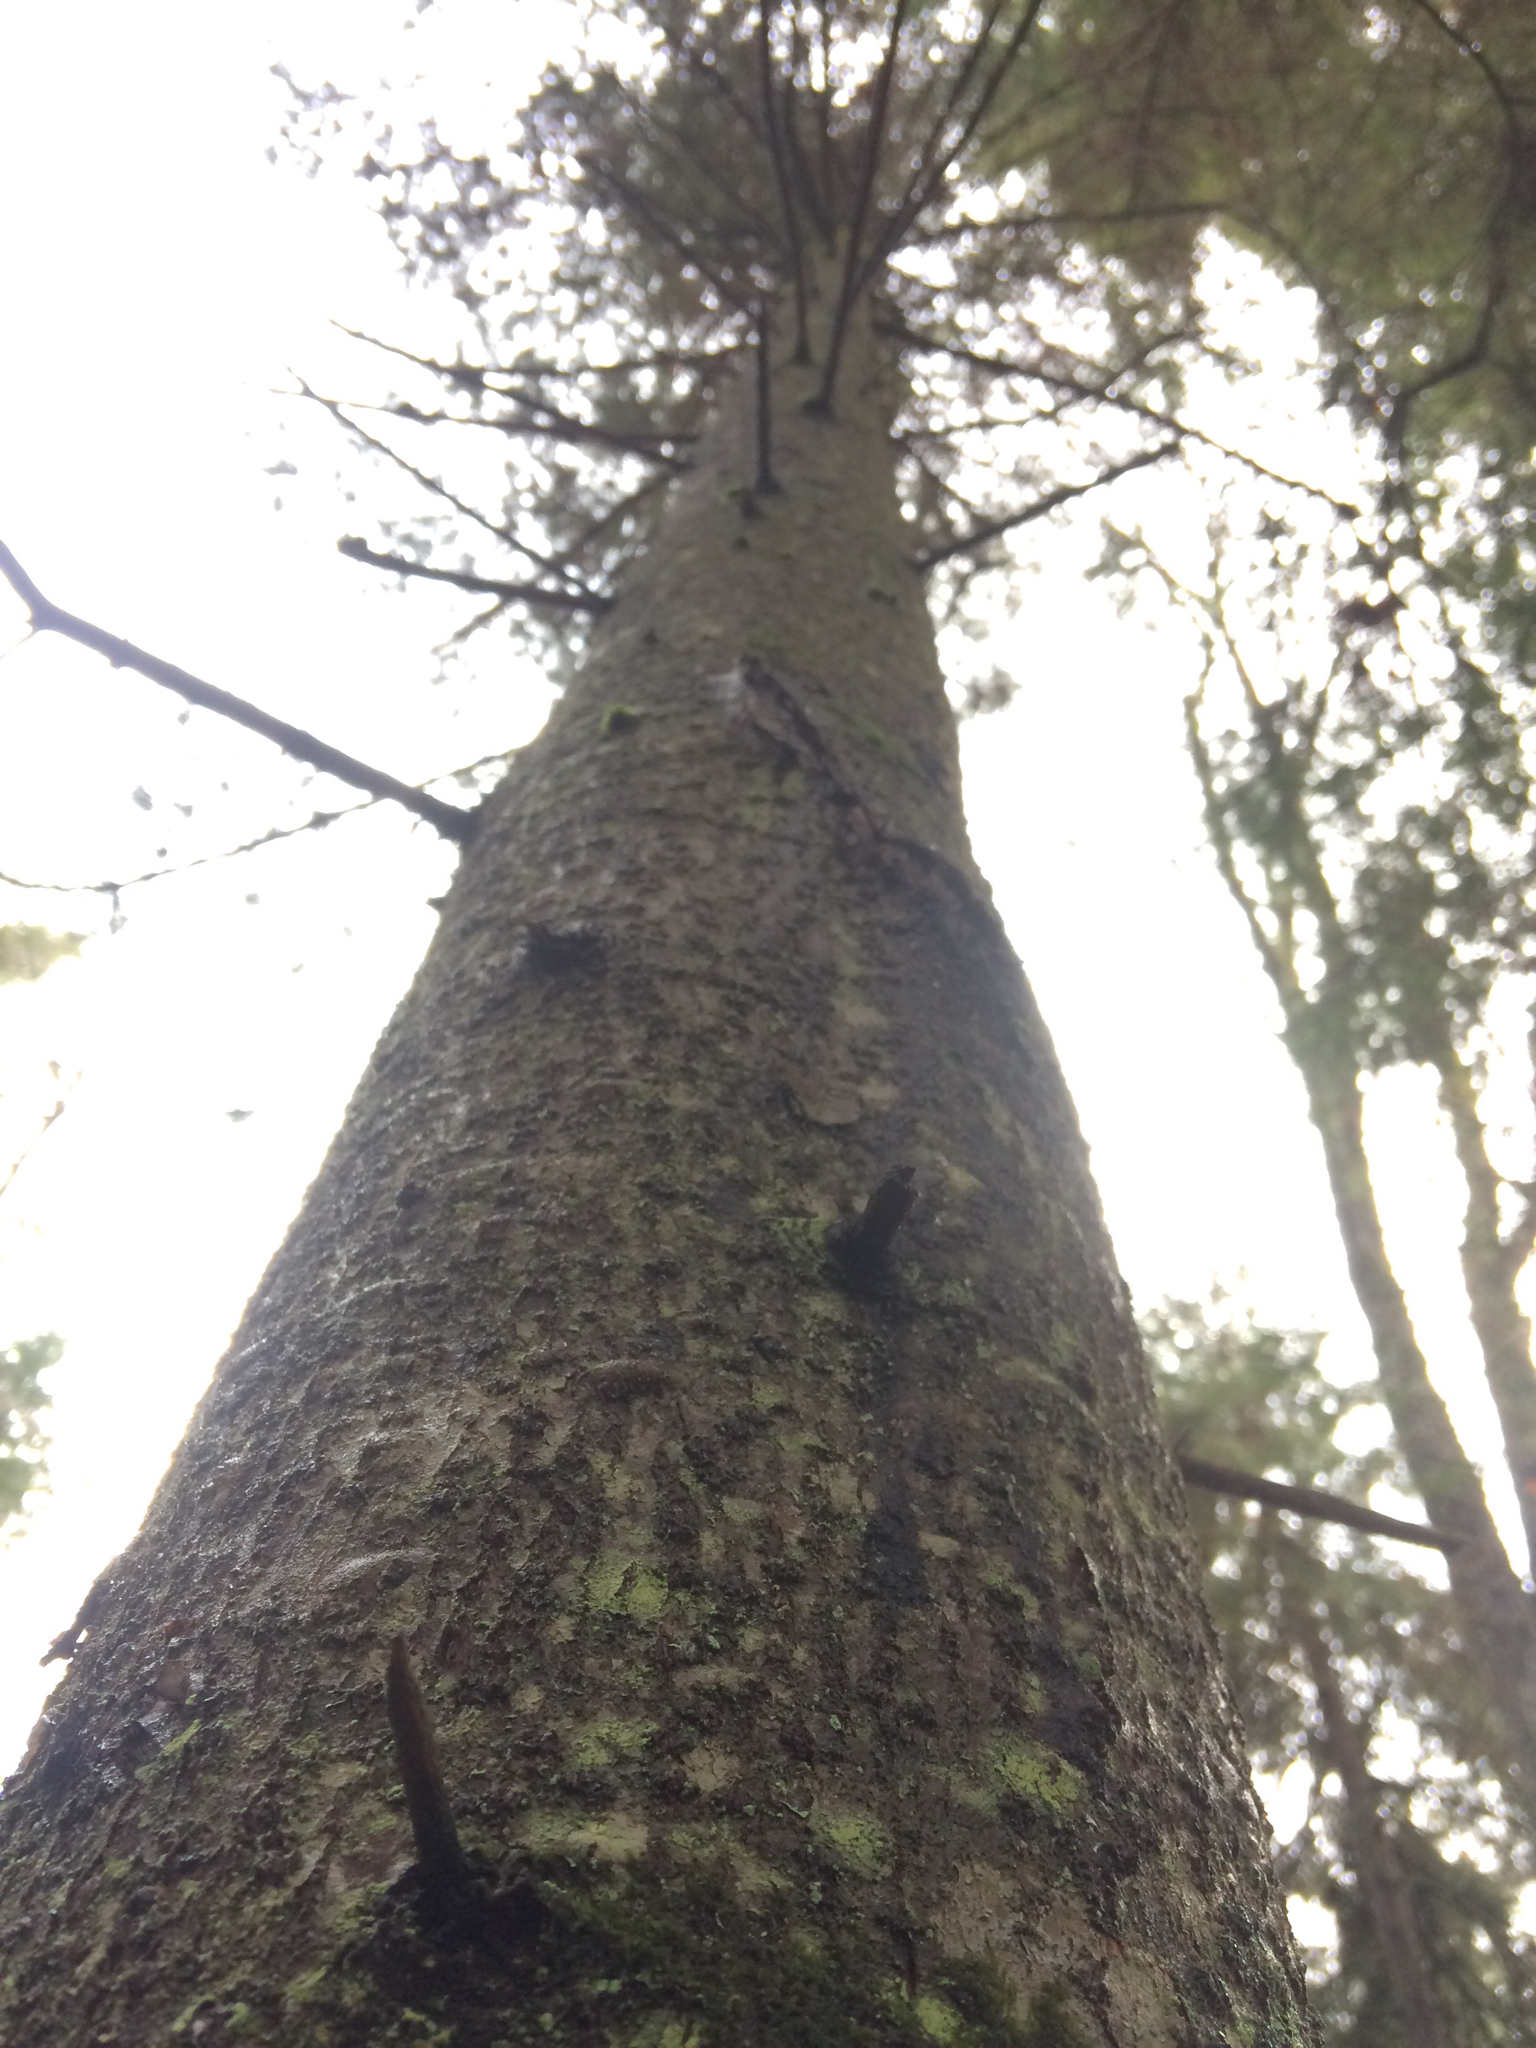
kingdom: Plantae
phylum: Tracheophyta
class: Pinopsida
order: Pinales
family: Pinaceae
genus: Abies
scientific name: Abies balsamea
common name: Balsam fir
